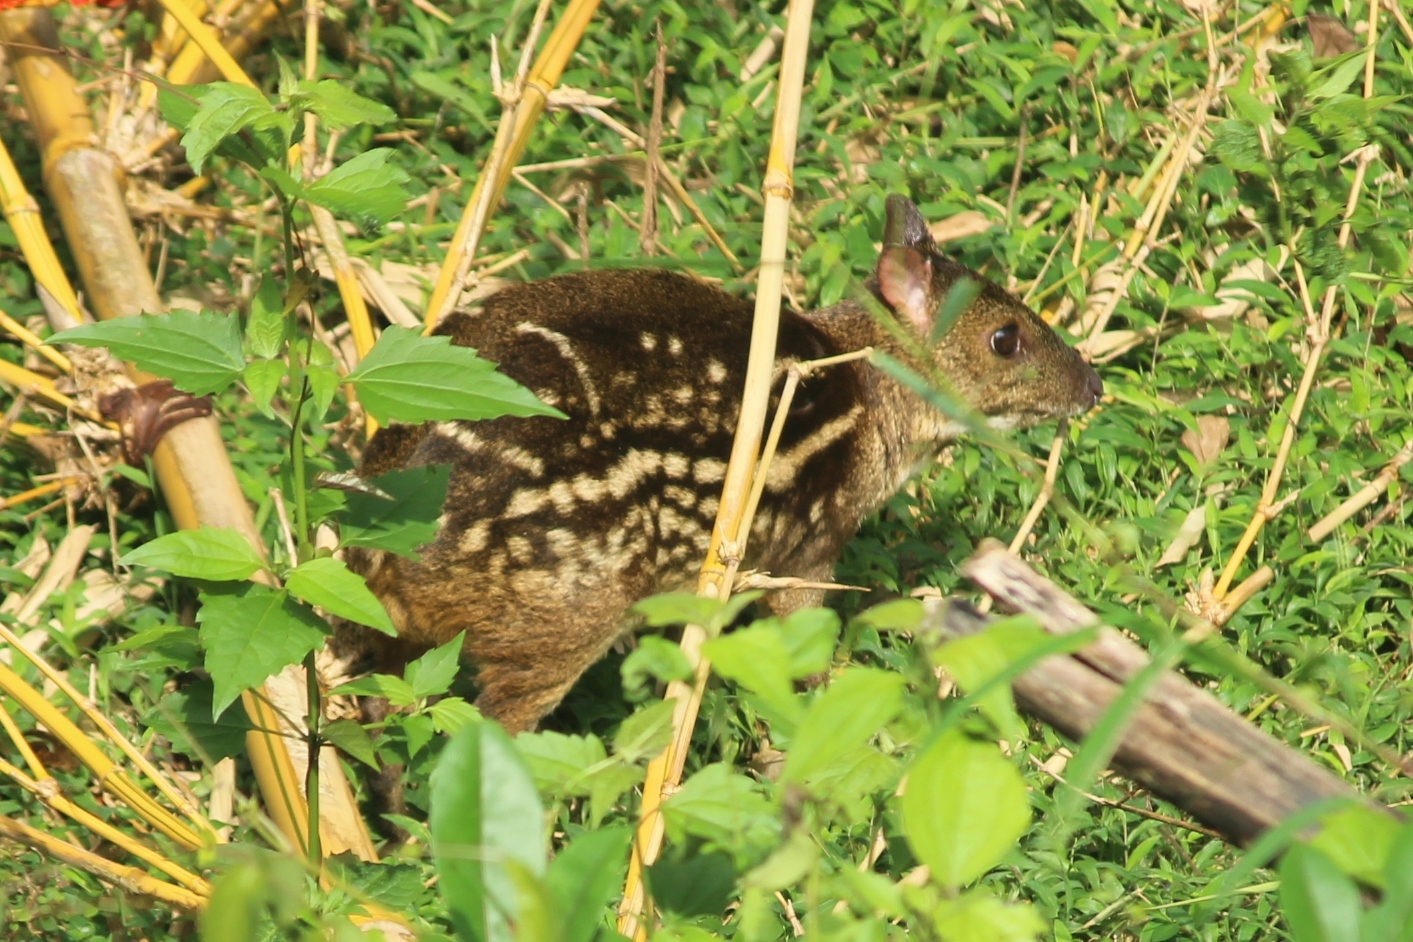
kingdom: Animalia
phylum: Chordata
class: Mammalia
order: Artiodactyla
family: Tragulidae
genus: Moschiola
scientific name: Moschiola indica
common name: Indian chevrotain
